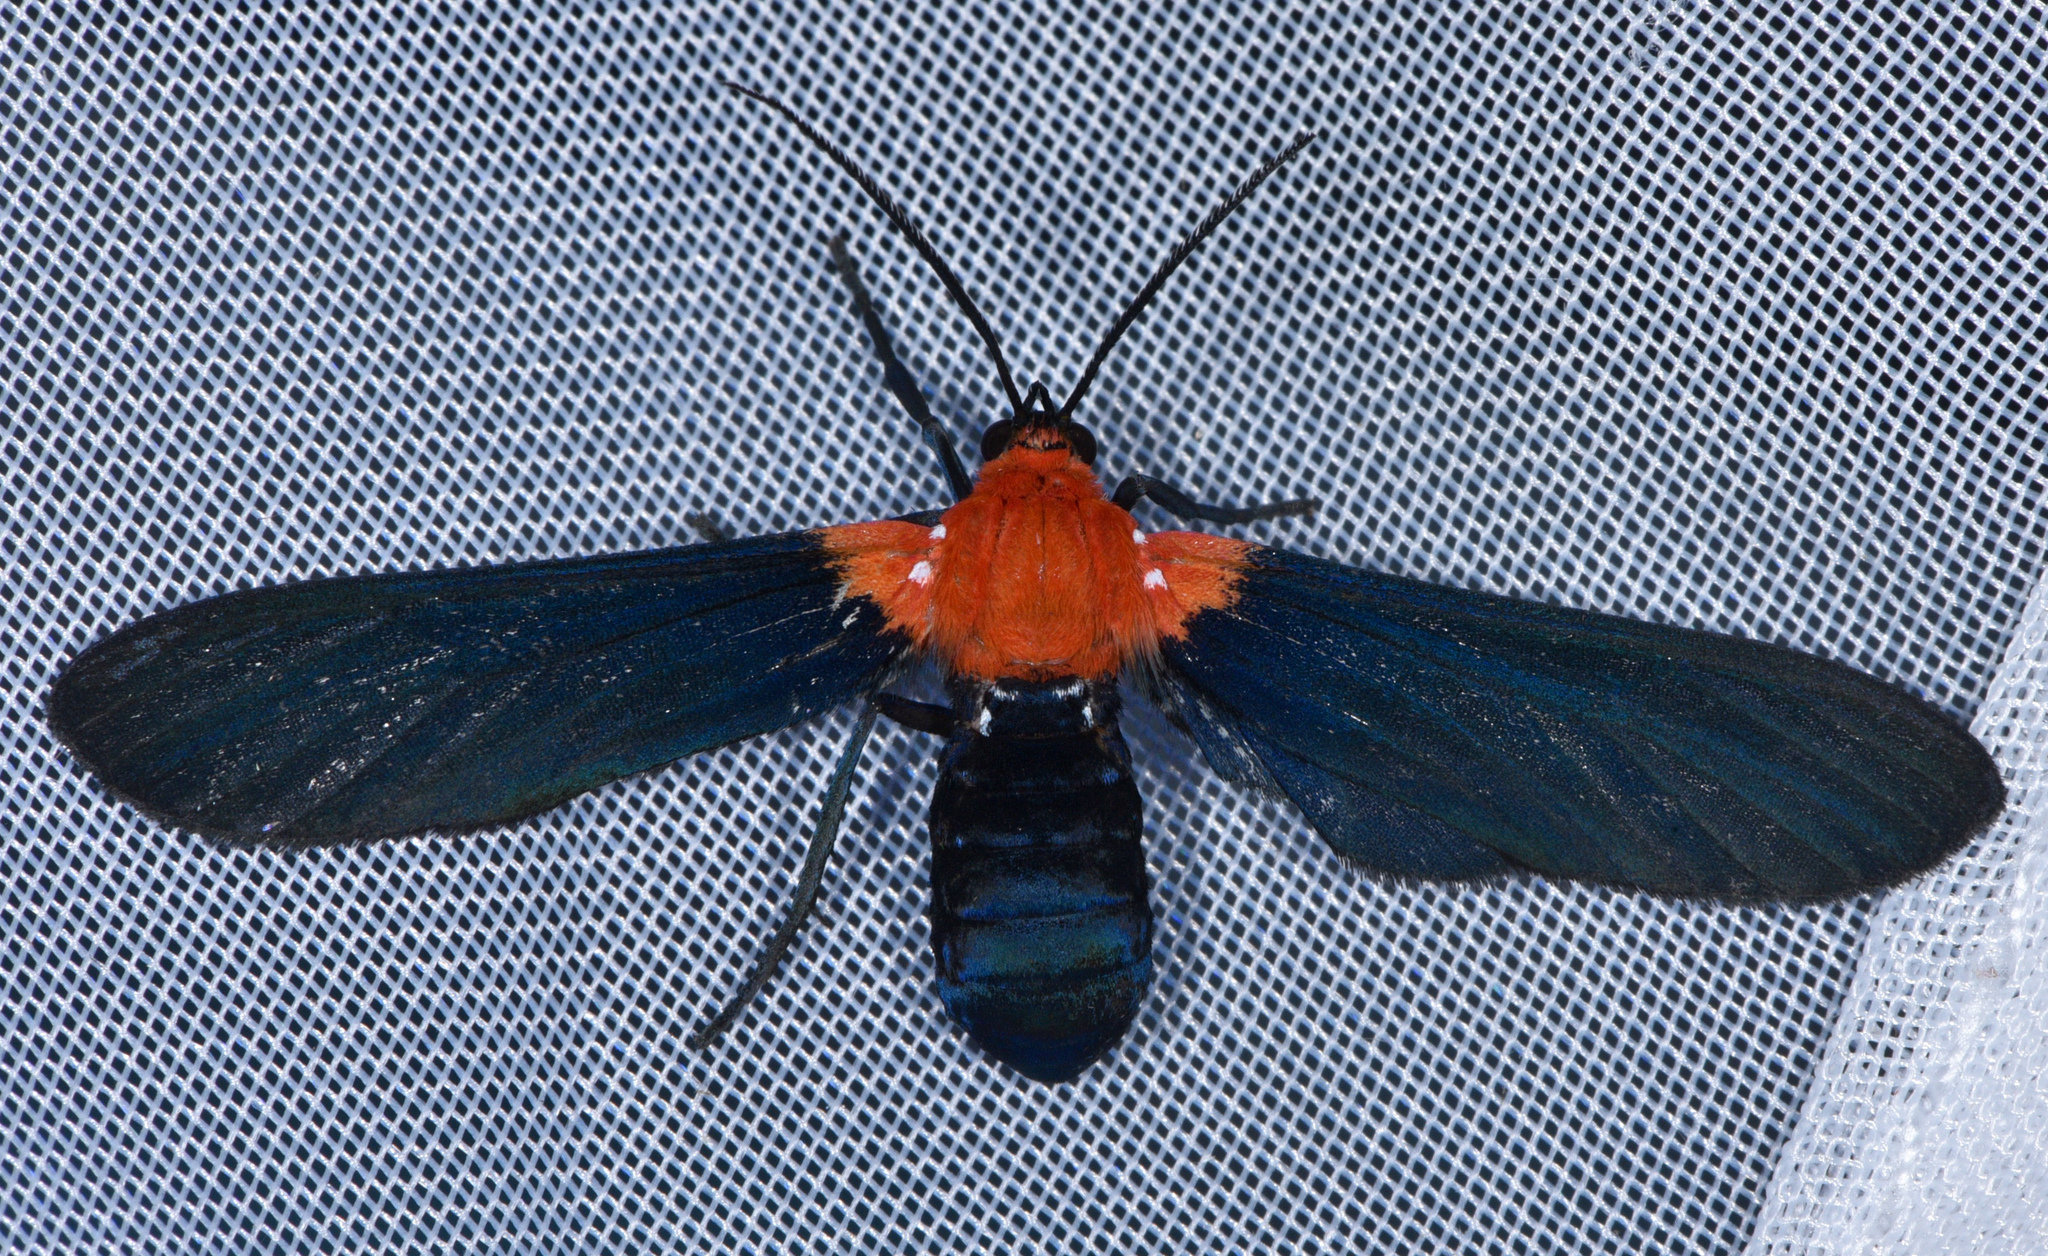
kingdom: Animalia
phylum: Arthropoda
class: Insecta
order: Lepidoptera
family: Erebidae
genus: Psoloptera
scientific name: Psoloptera basifulva
